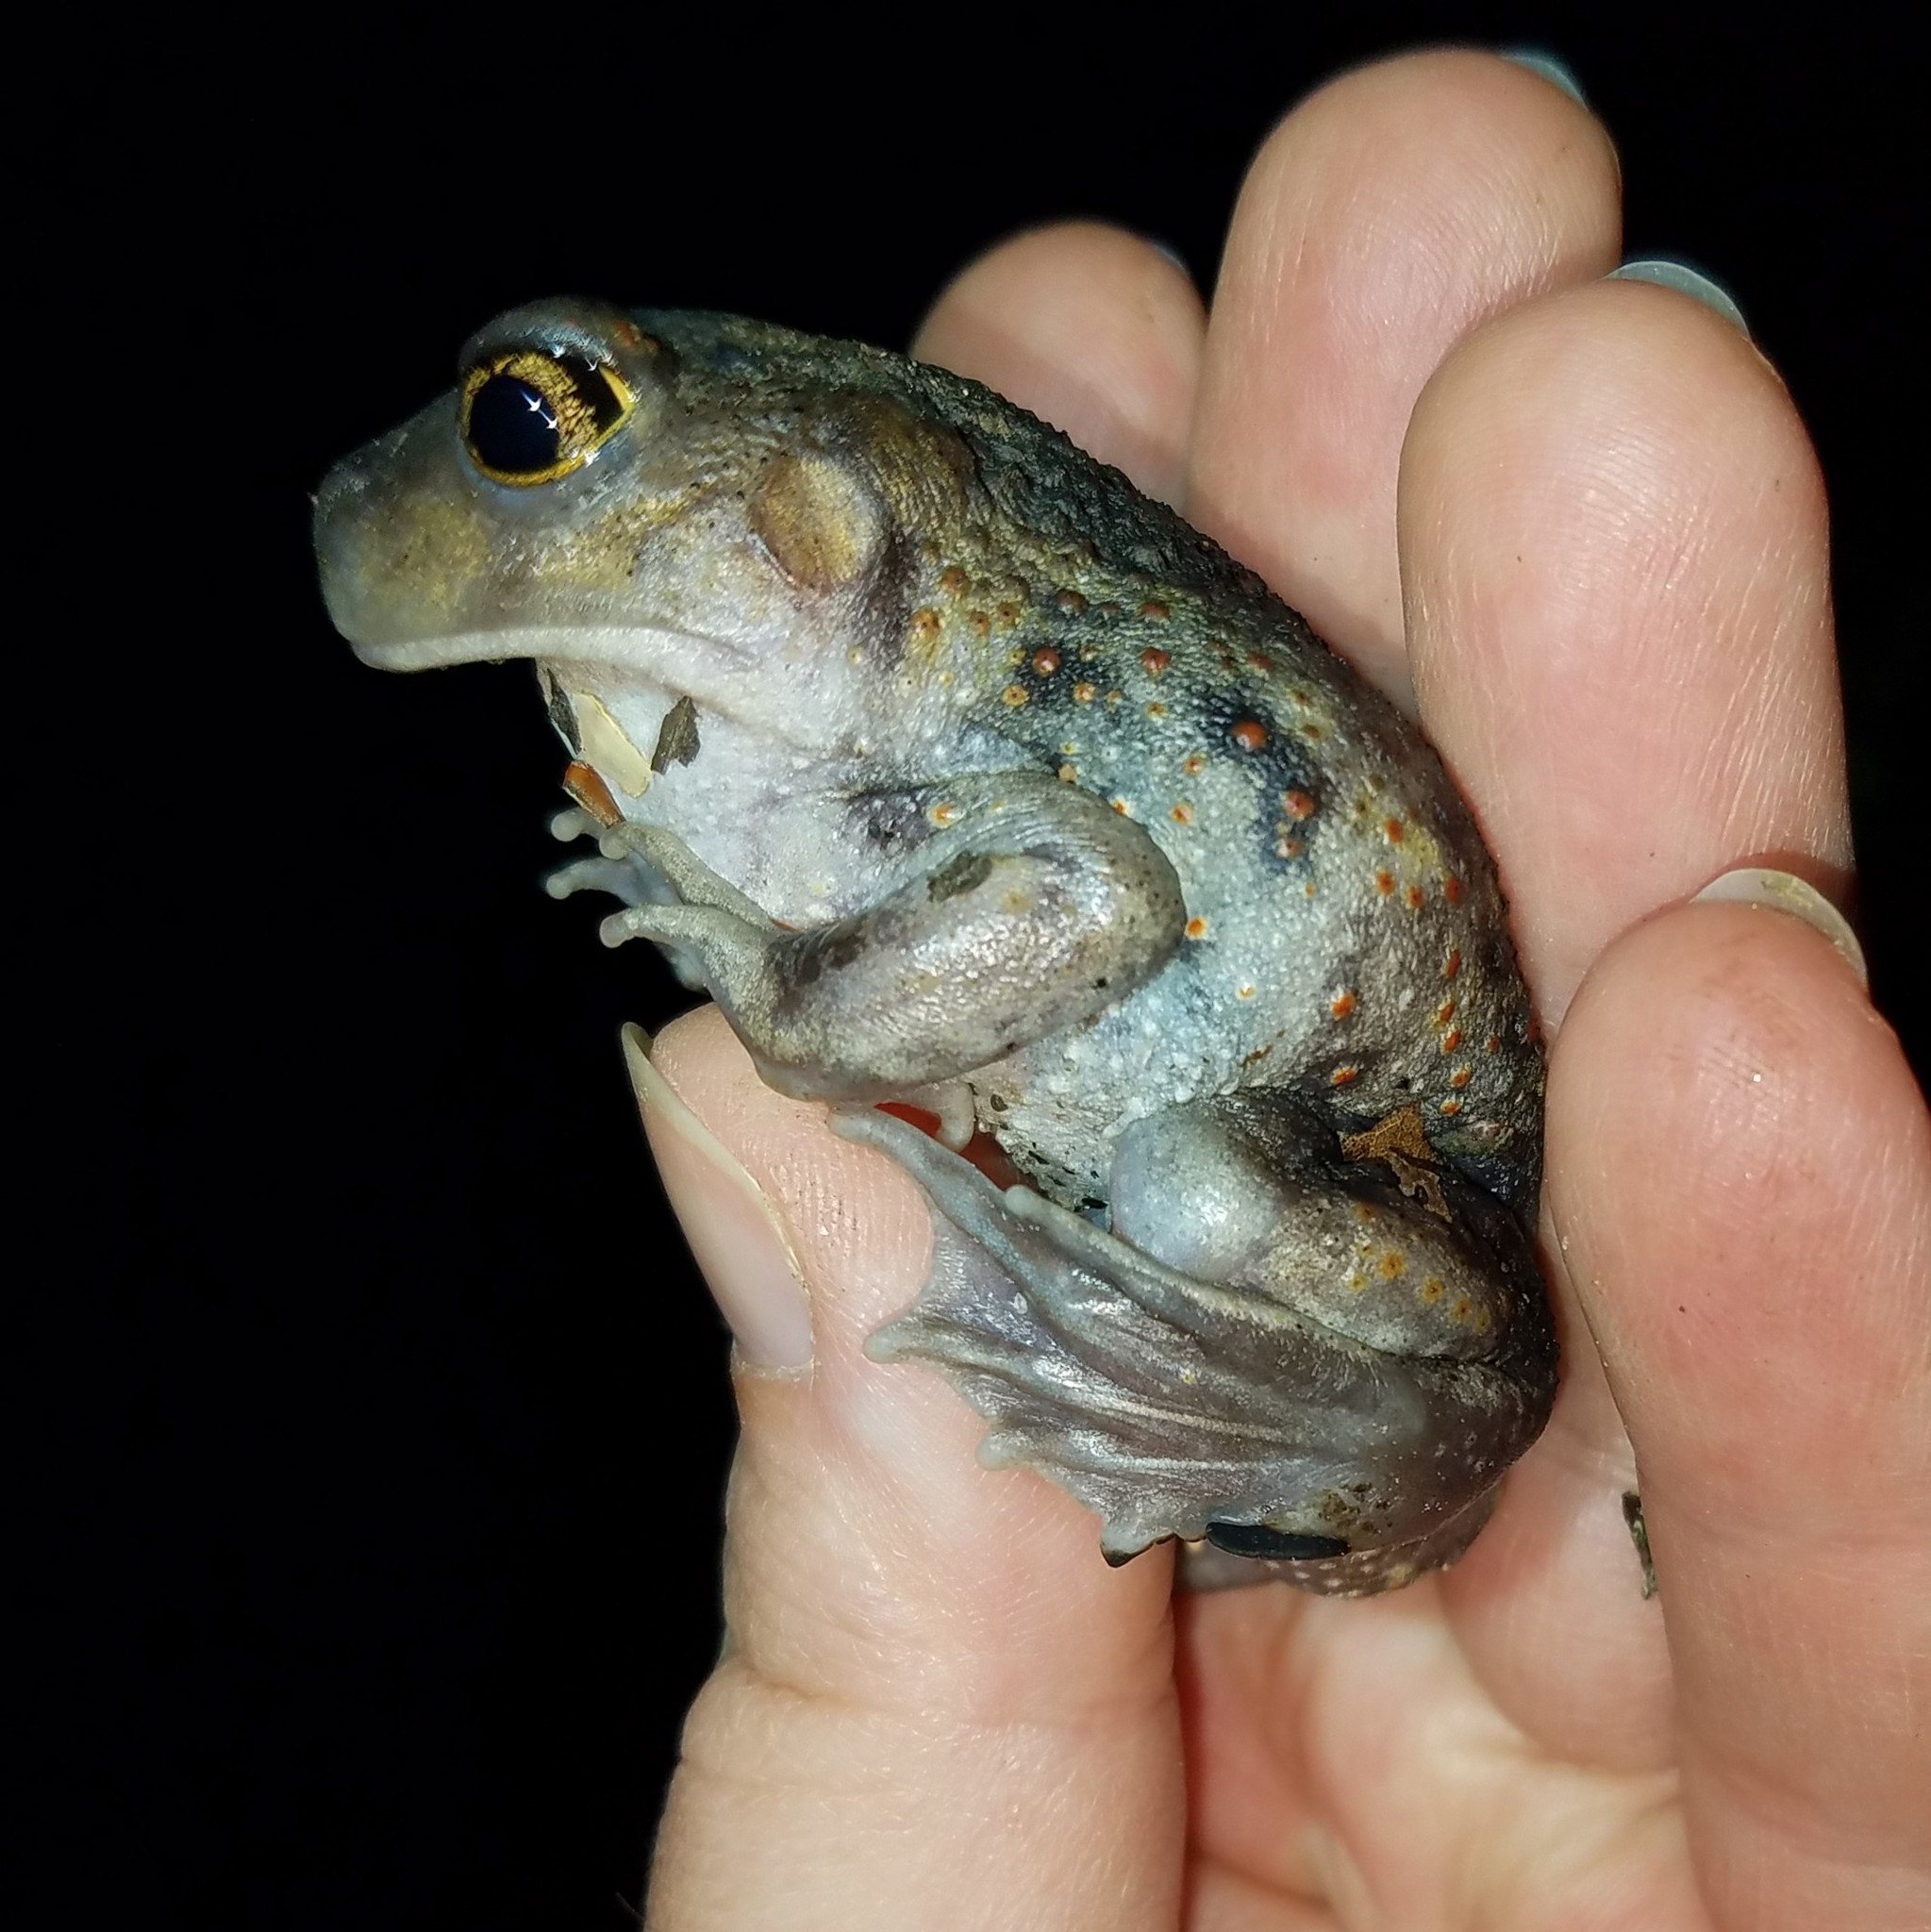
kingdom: Animalia
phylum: Chordata
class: Amphibia
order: Anura
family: Scaphiopodidae
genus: Scaphiopus
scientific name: Scaphiopus holbrookii
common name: Eastern spadefoot toad
